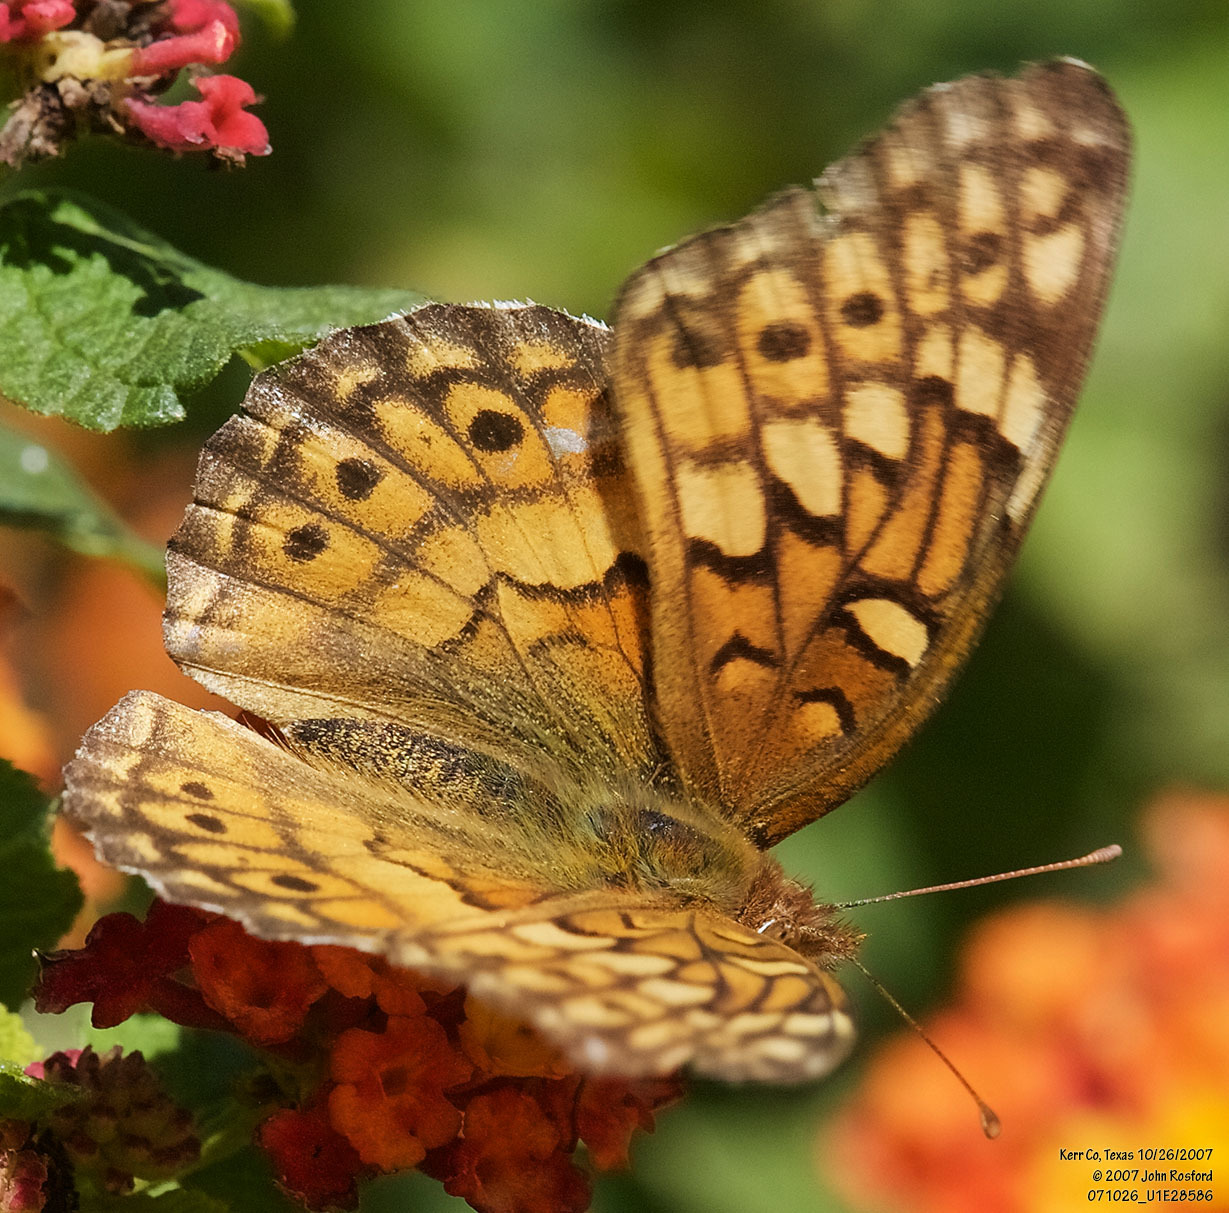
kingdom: Animalia
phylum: Arthropoda
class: Insecta
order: Lepidoptera
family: Nymphalidae
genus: Euptoieta
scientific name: Euptoieta claudia
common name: Variegated fritillary
